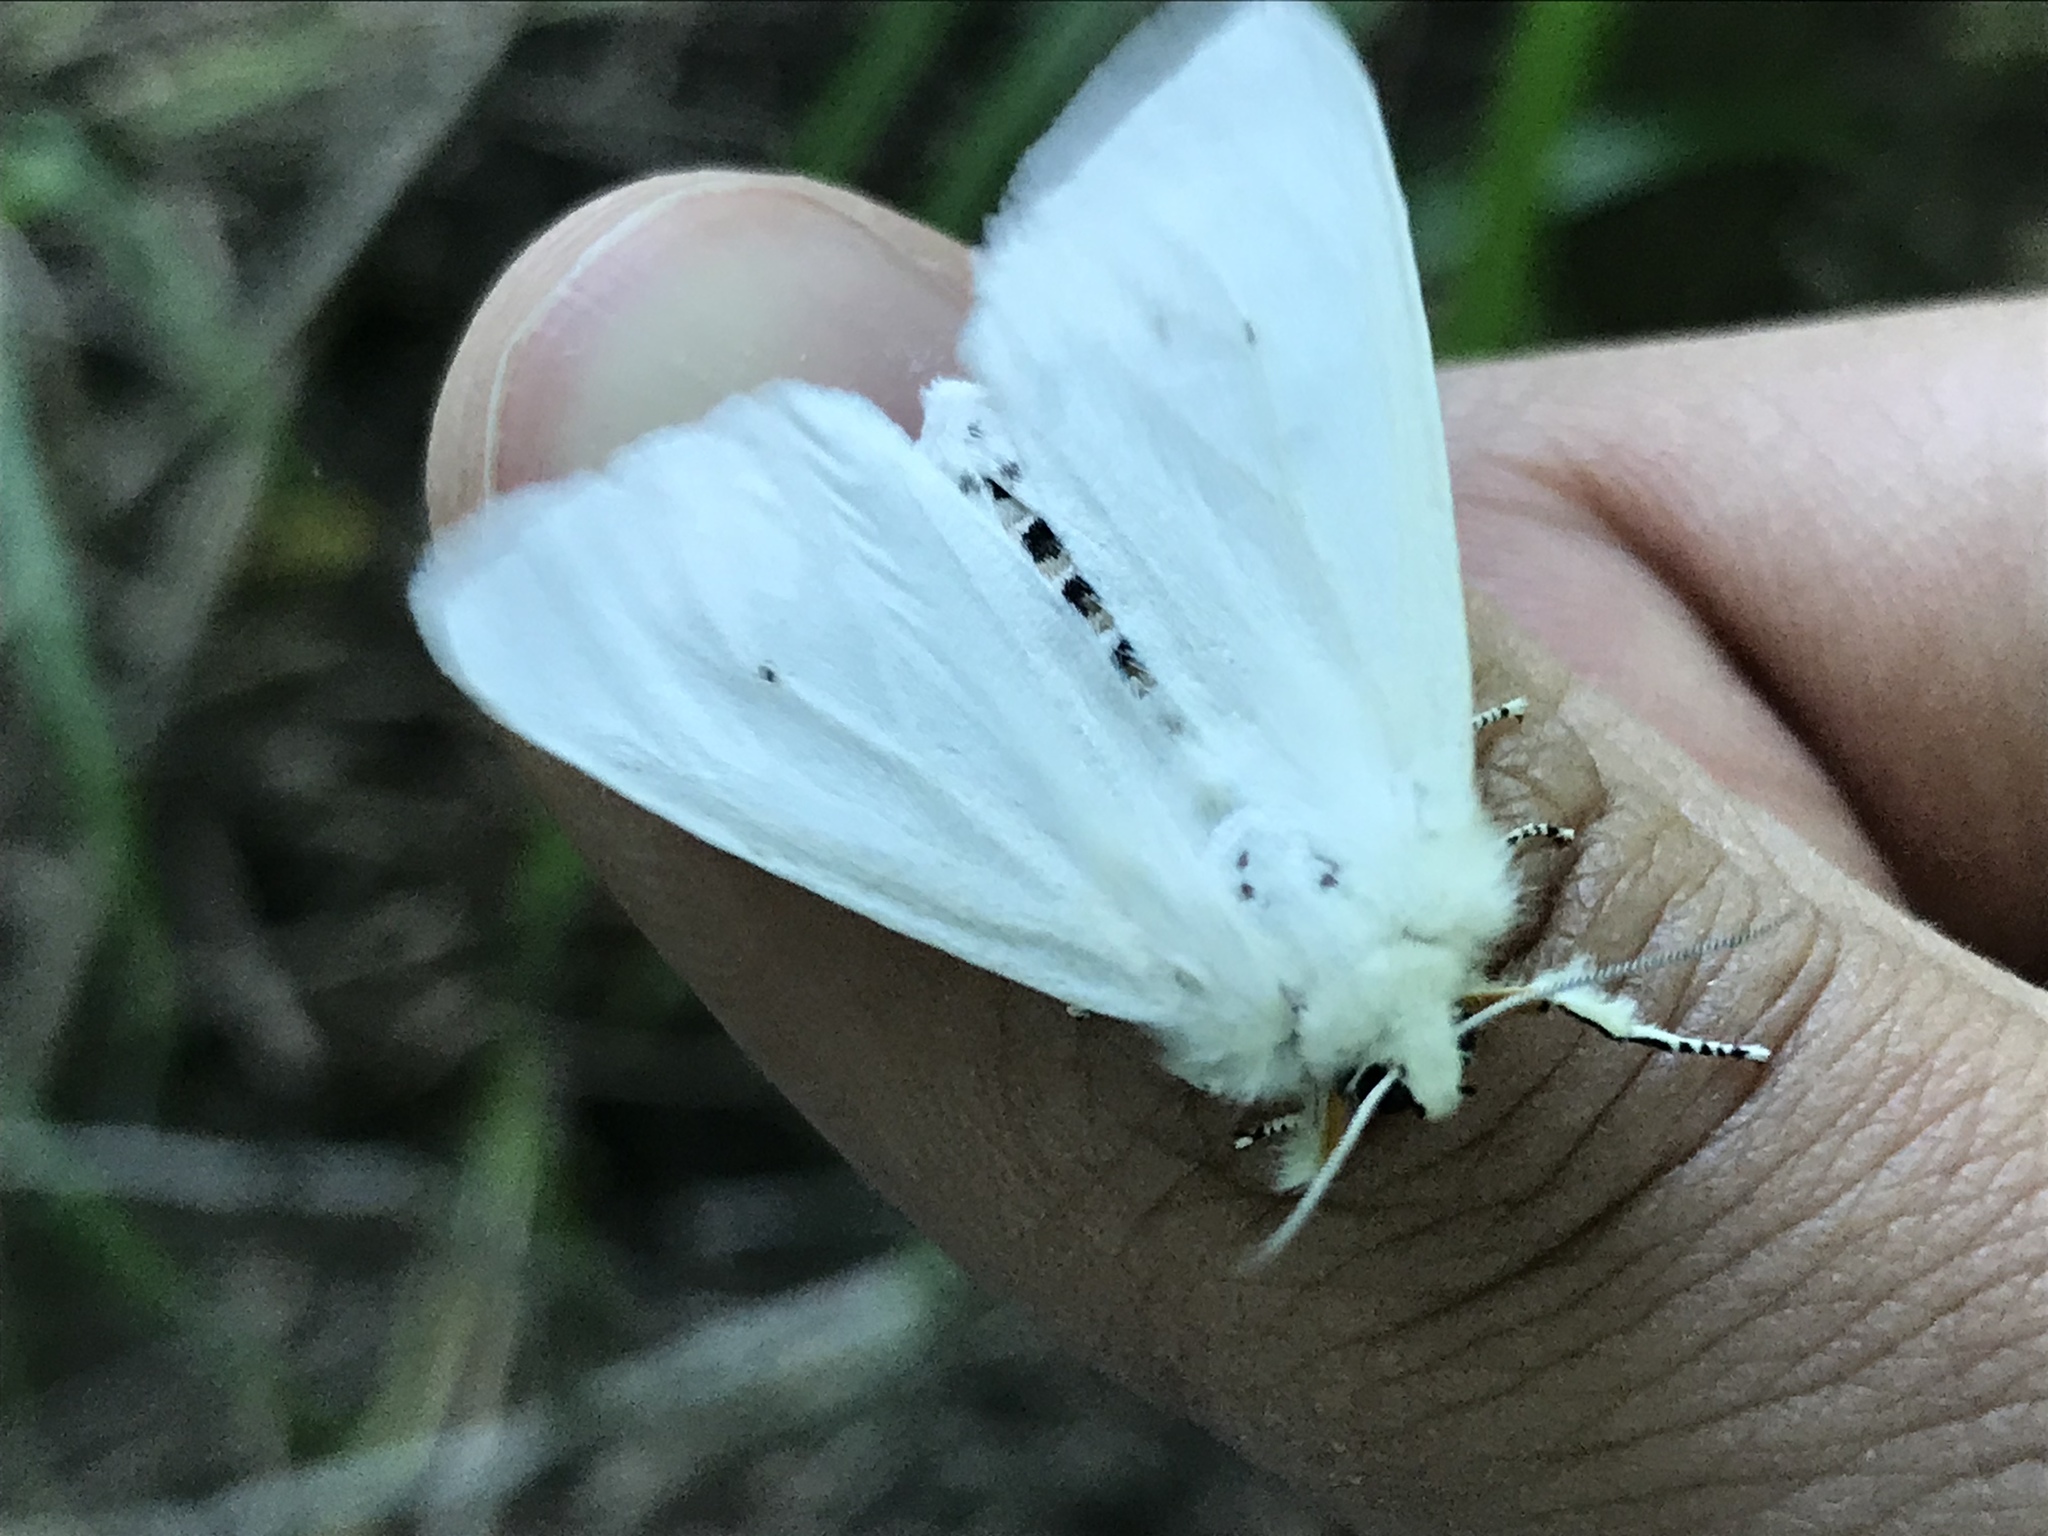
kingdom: Animalia
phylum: Arthropoda
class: Insecta
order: Lepidoptera
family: Erebidae
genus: Spilosoma
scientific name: Spilosoma virginica
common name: Virginia tiger moth
